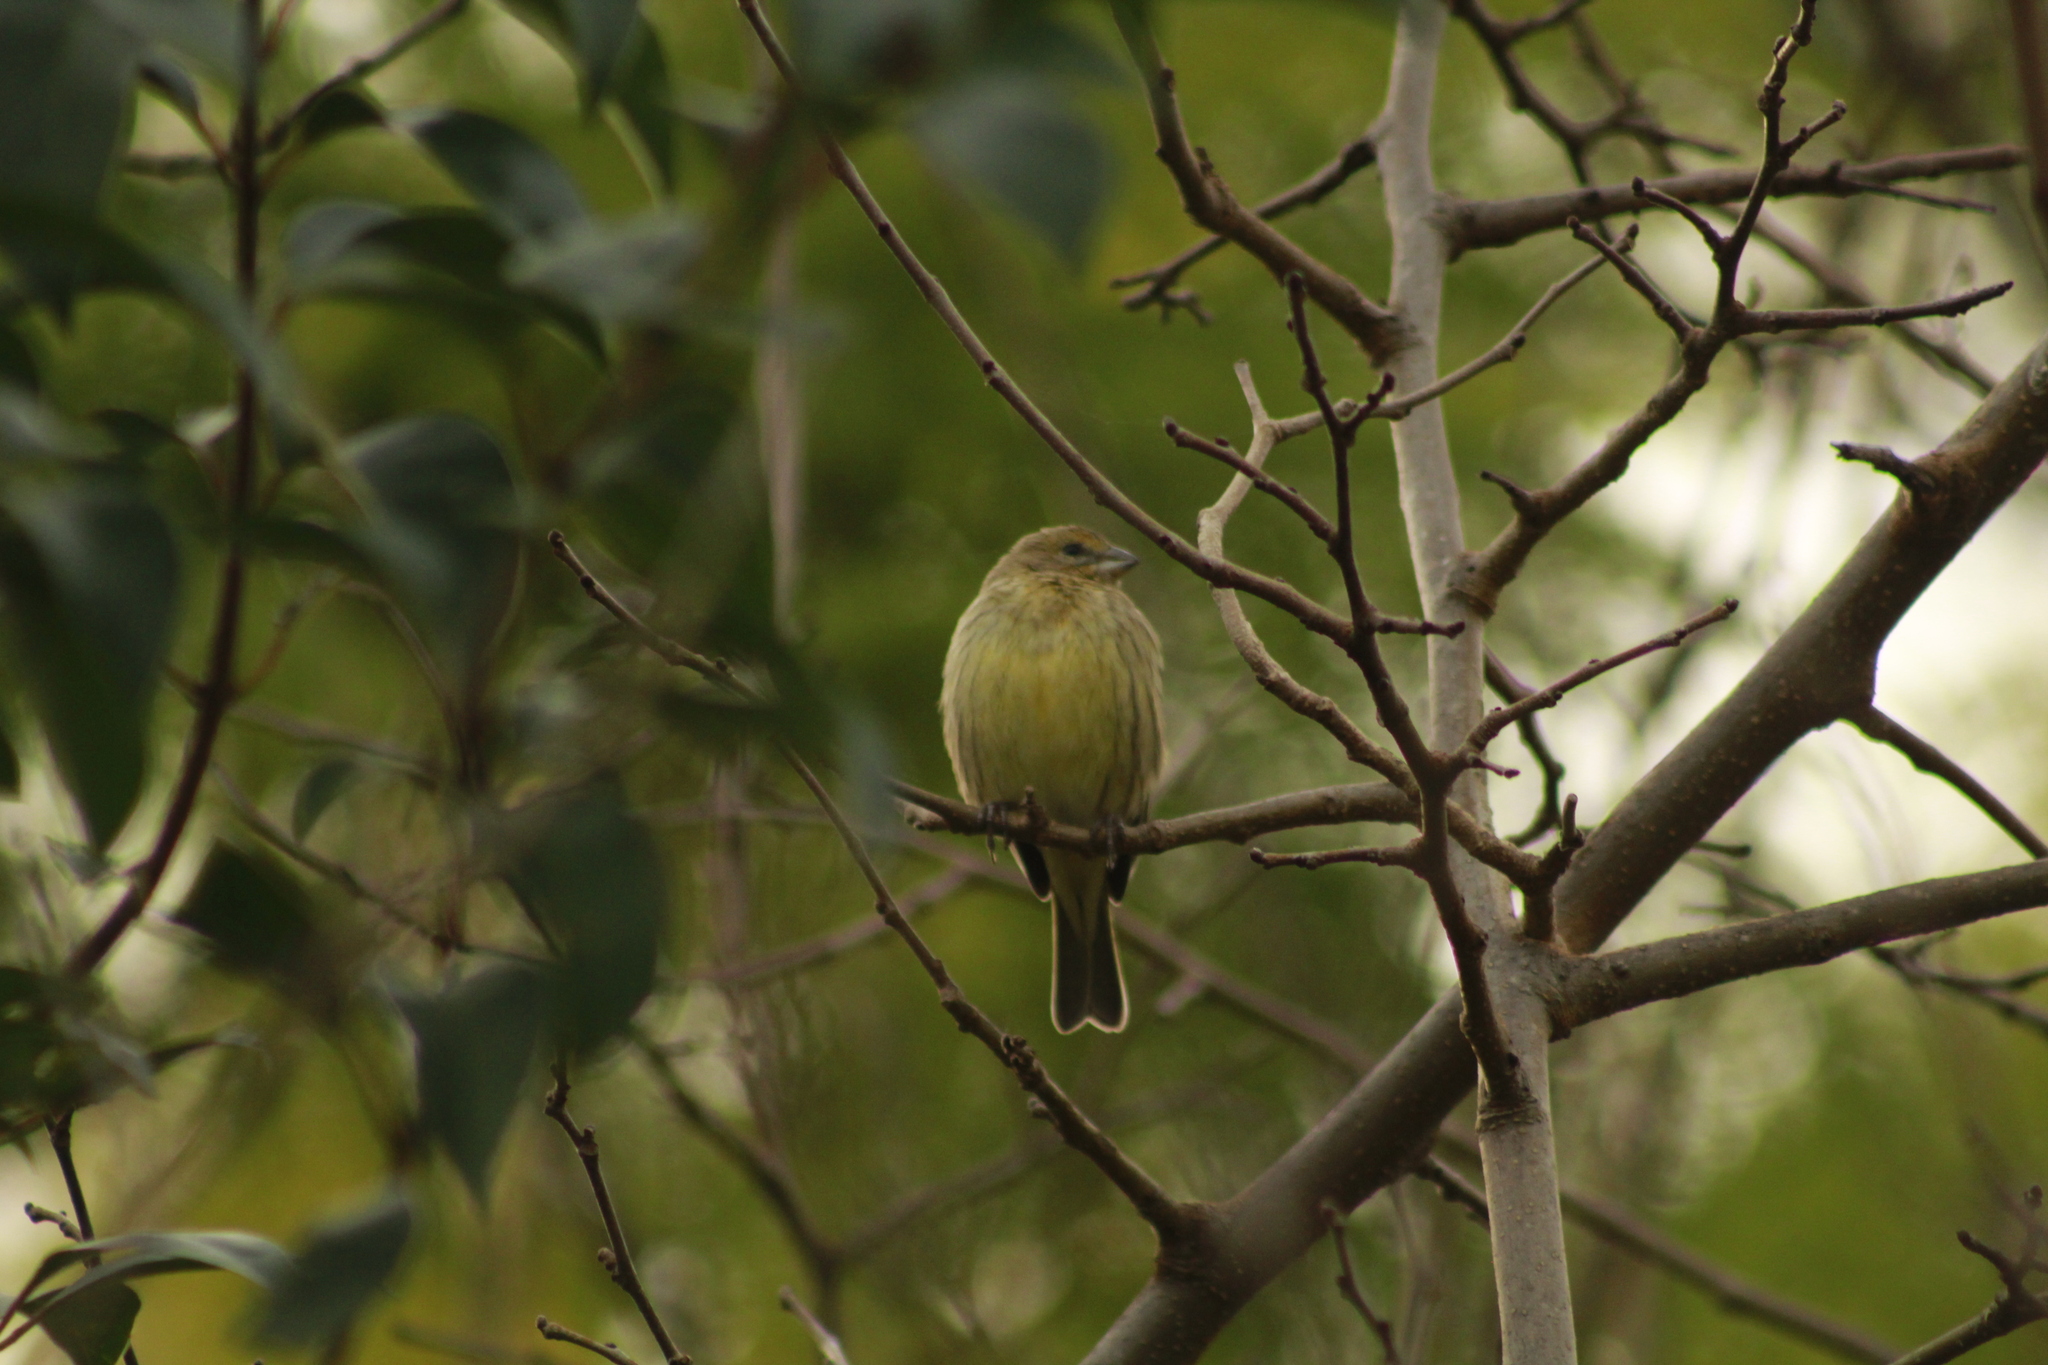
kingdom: Animalia
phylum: Chordata
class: Aves
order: Passeriformes
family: Thraupidae
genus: Sicalis
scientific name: Sicalis flaveola
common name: Saffron finch
